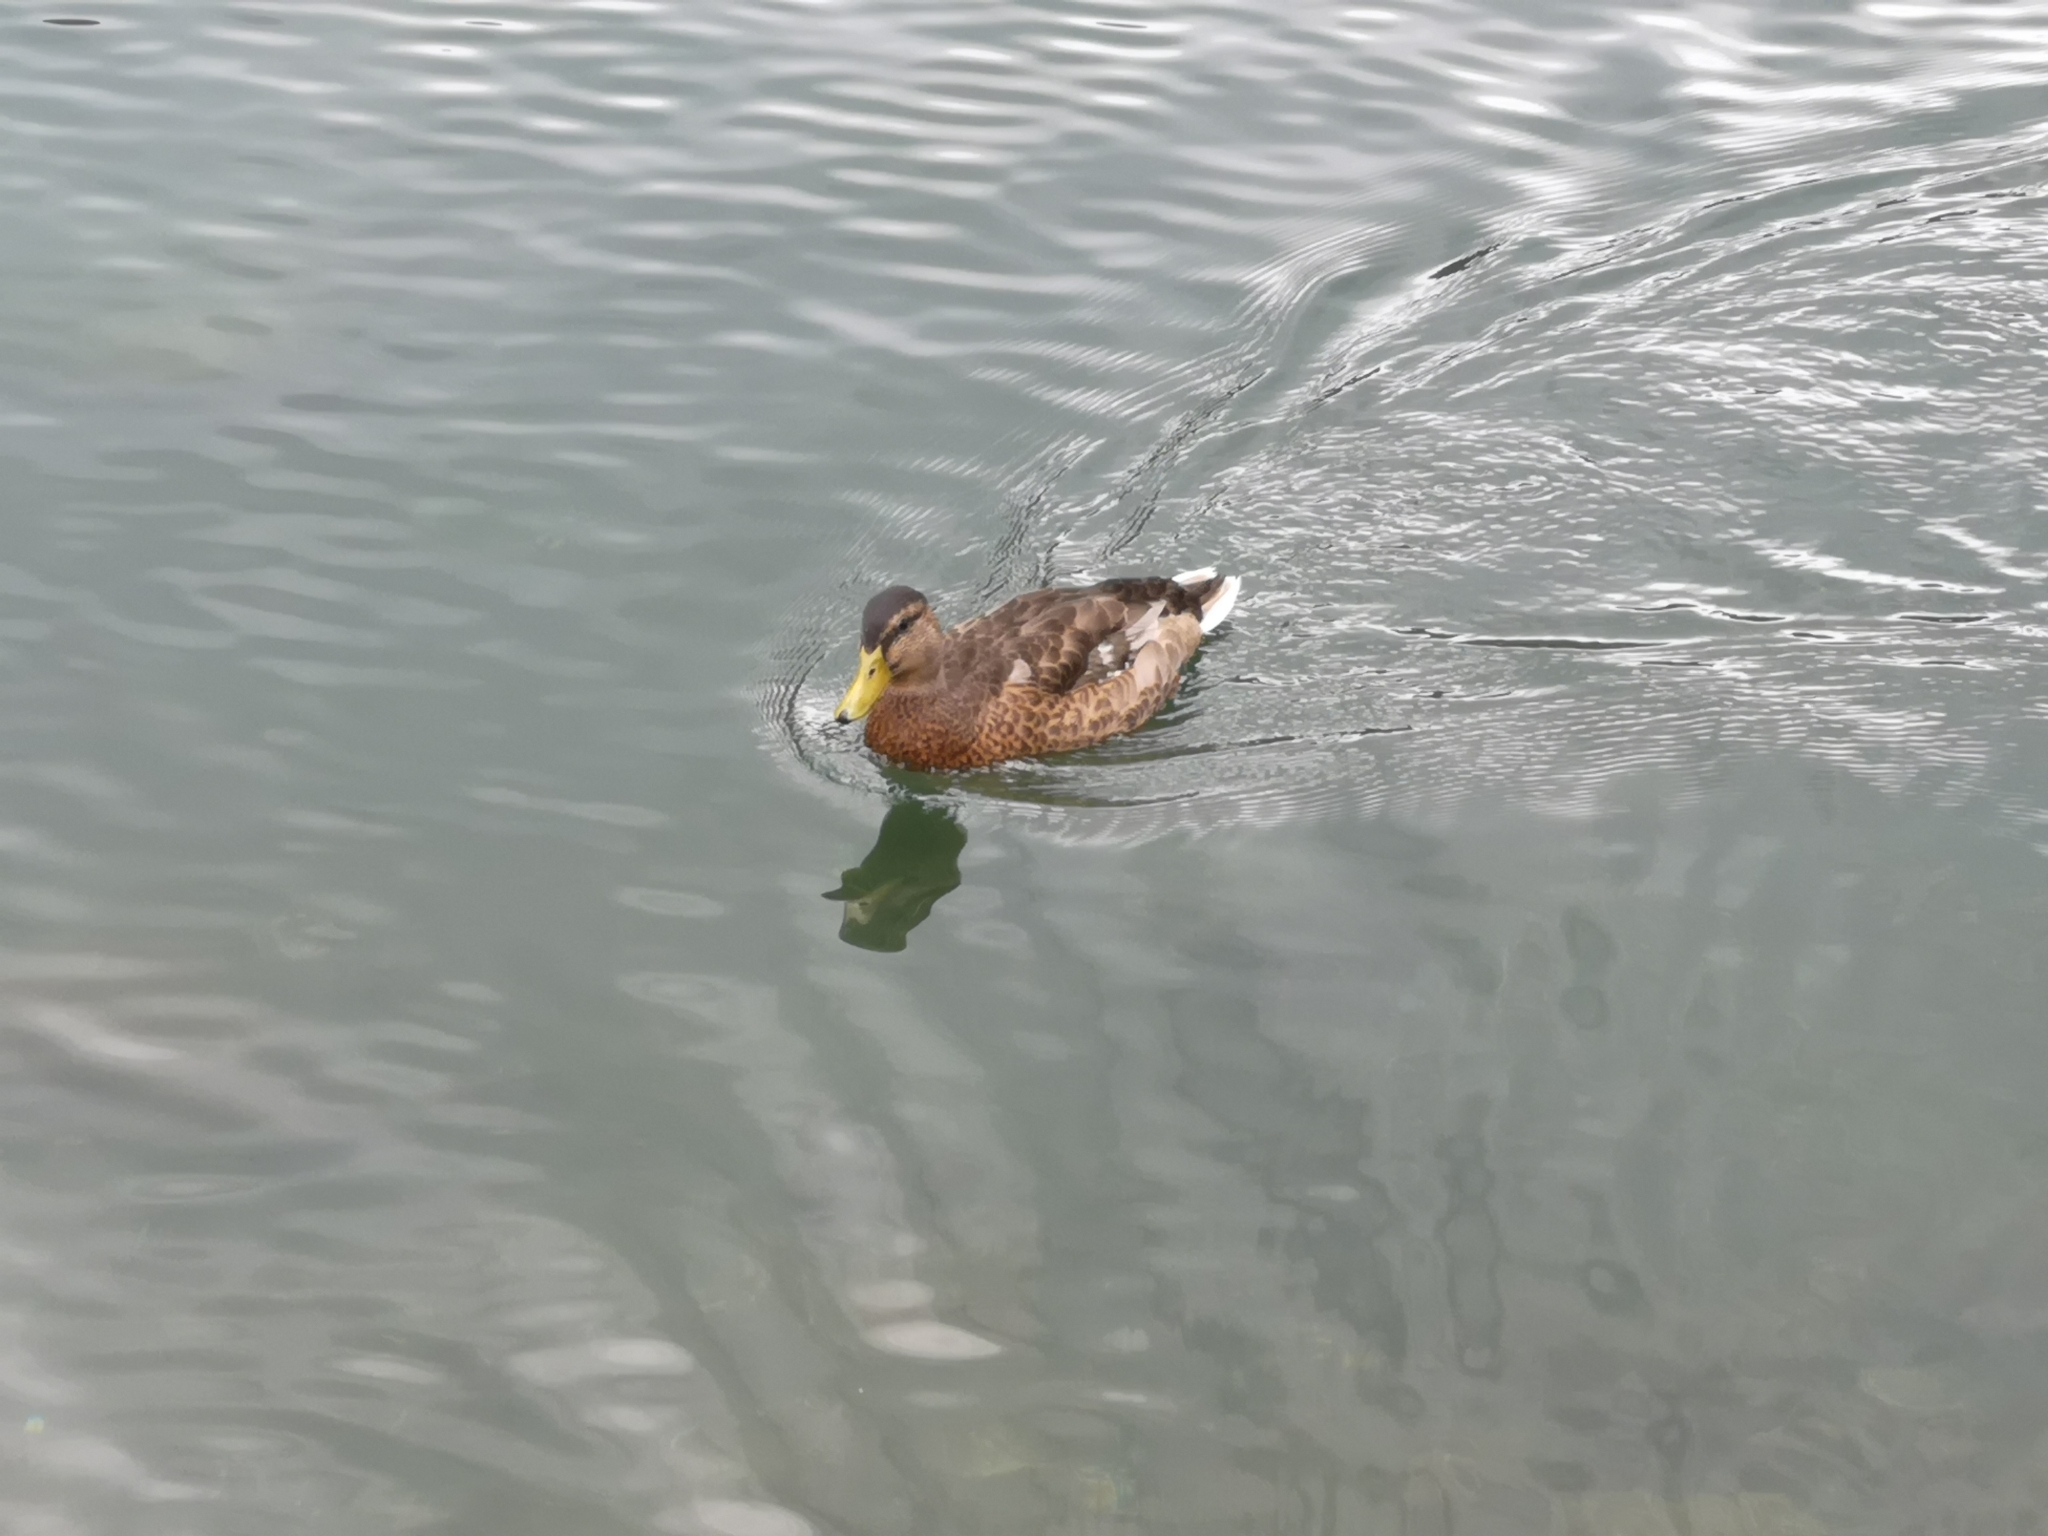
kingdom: Animalia
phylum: Chordata
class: Aves
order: Anseriformes
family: Anatidae
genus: Anas
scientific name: Anas platyrhynchos
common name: Mallard
